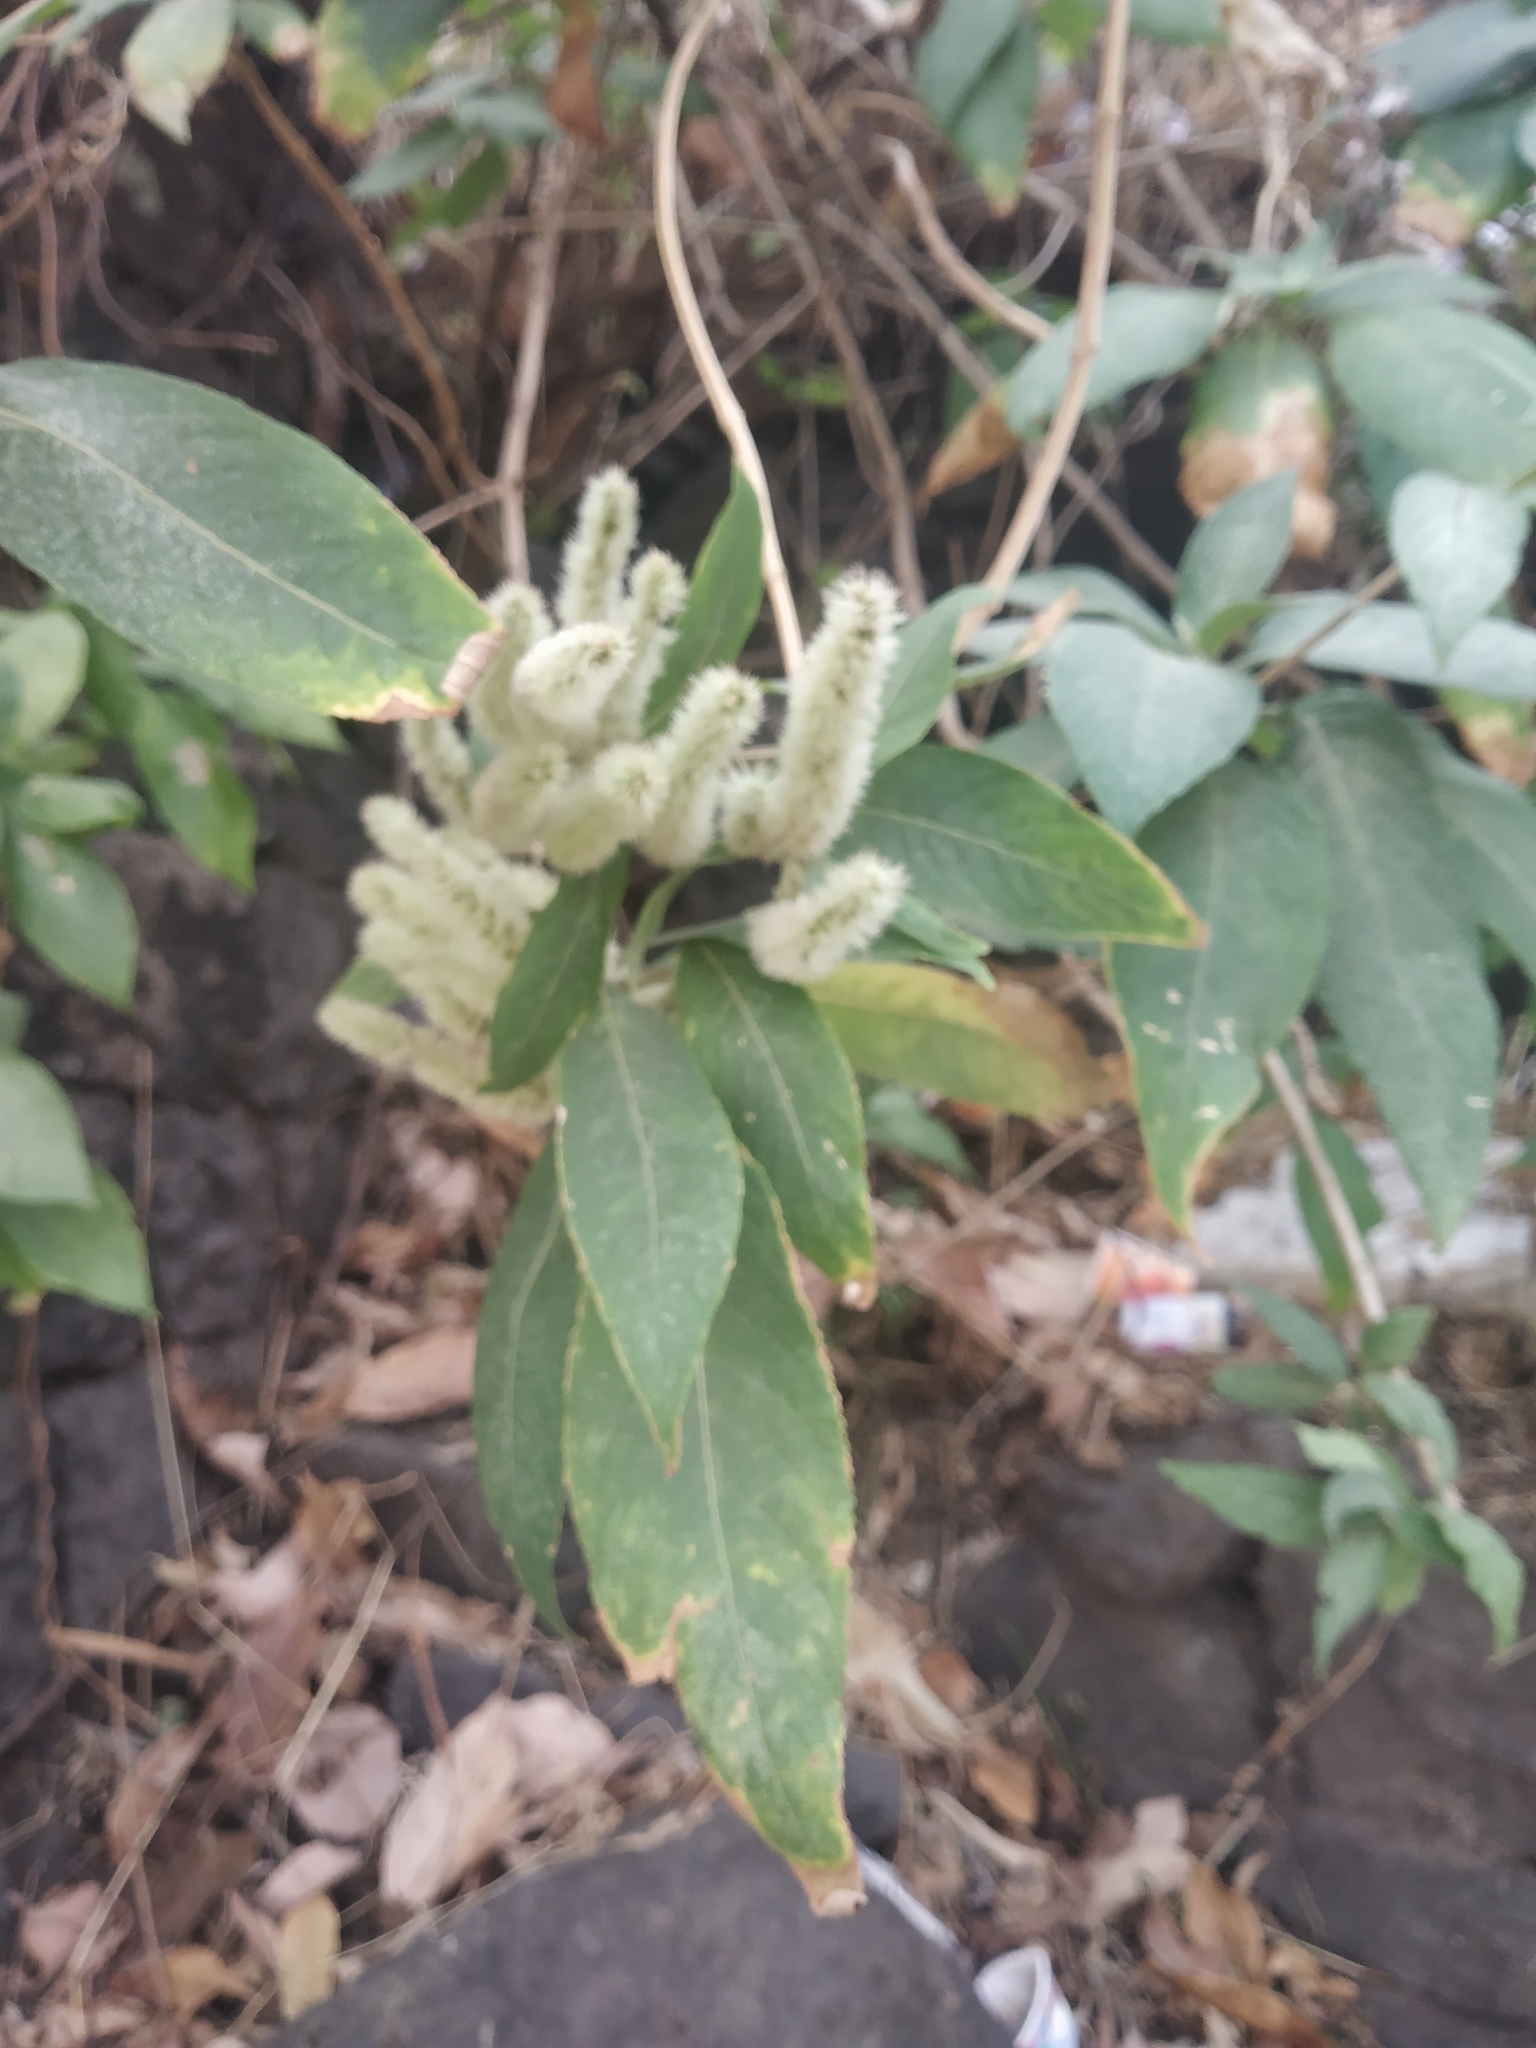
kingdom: Plantae
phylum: Tracheophyta
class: Magnoliopsida
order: Lamiales
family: Lamiaceae
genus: Colebrookea
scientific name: Colebrookea oppositifolia
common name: Indian squirrel tail
